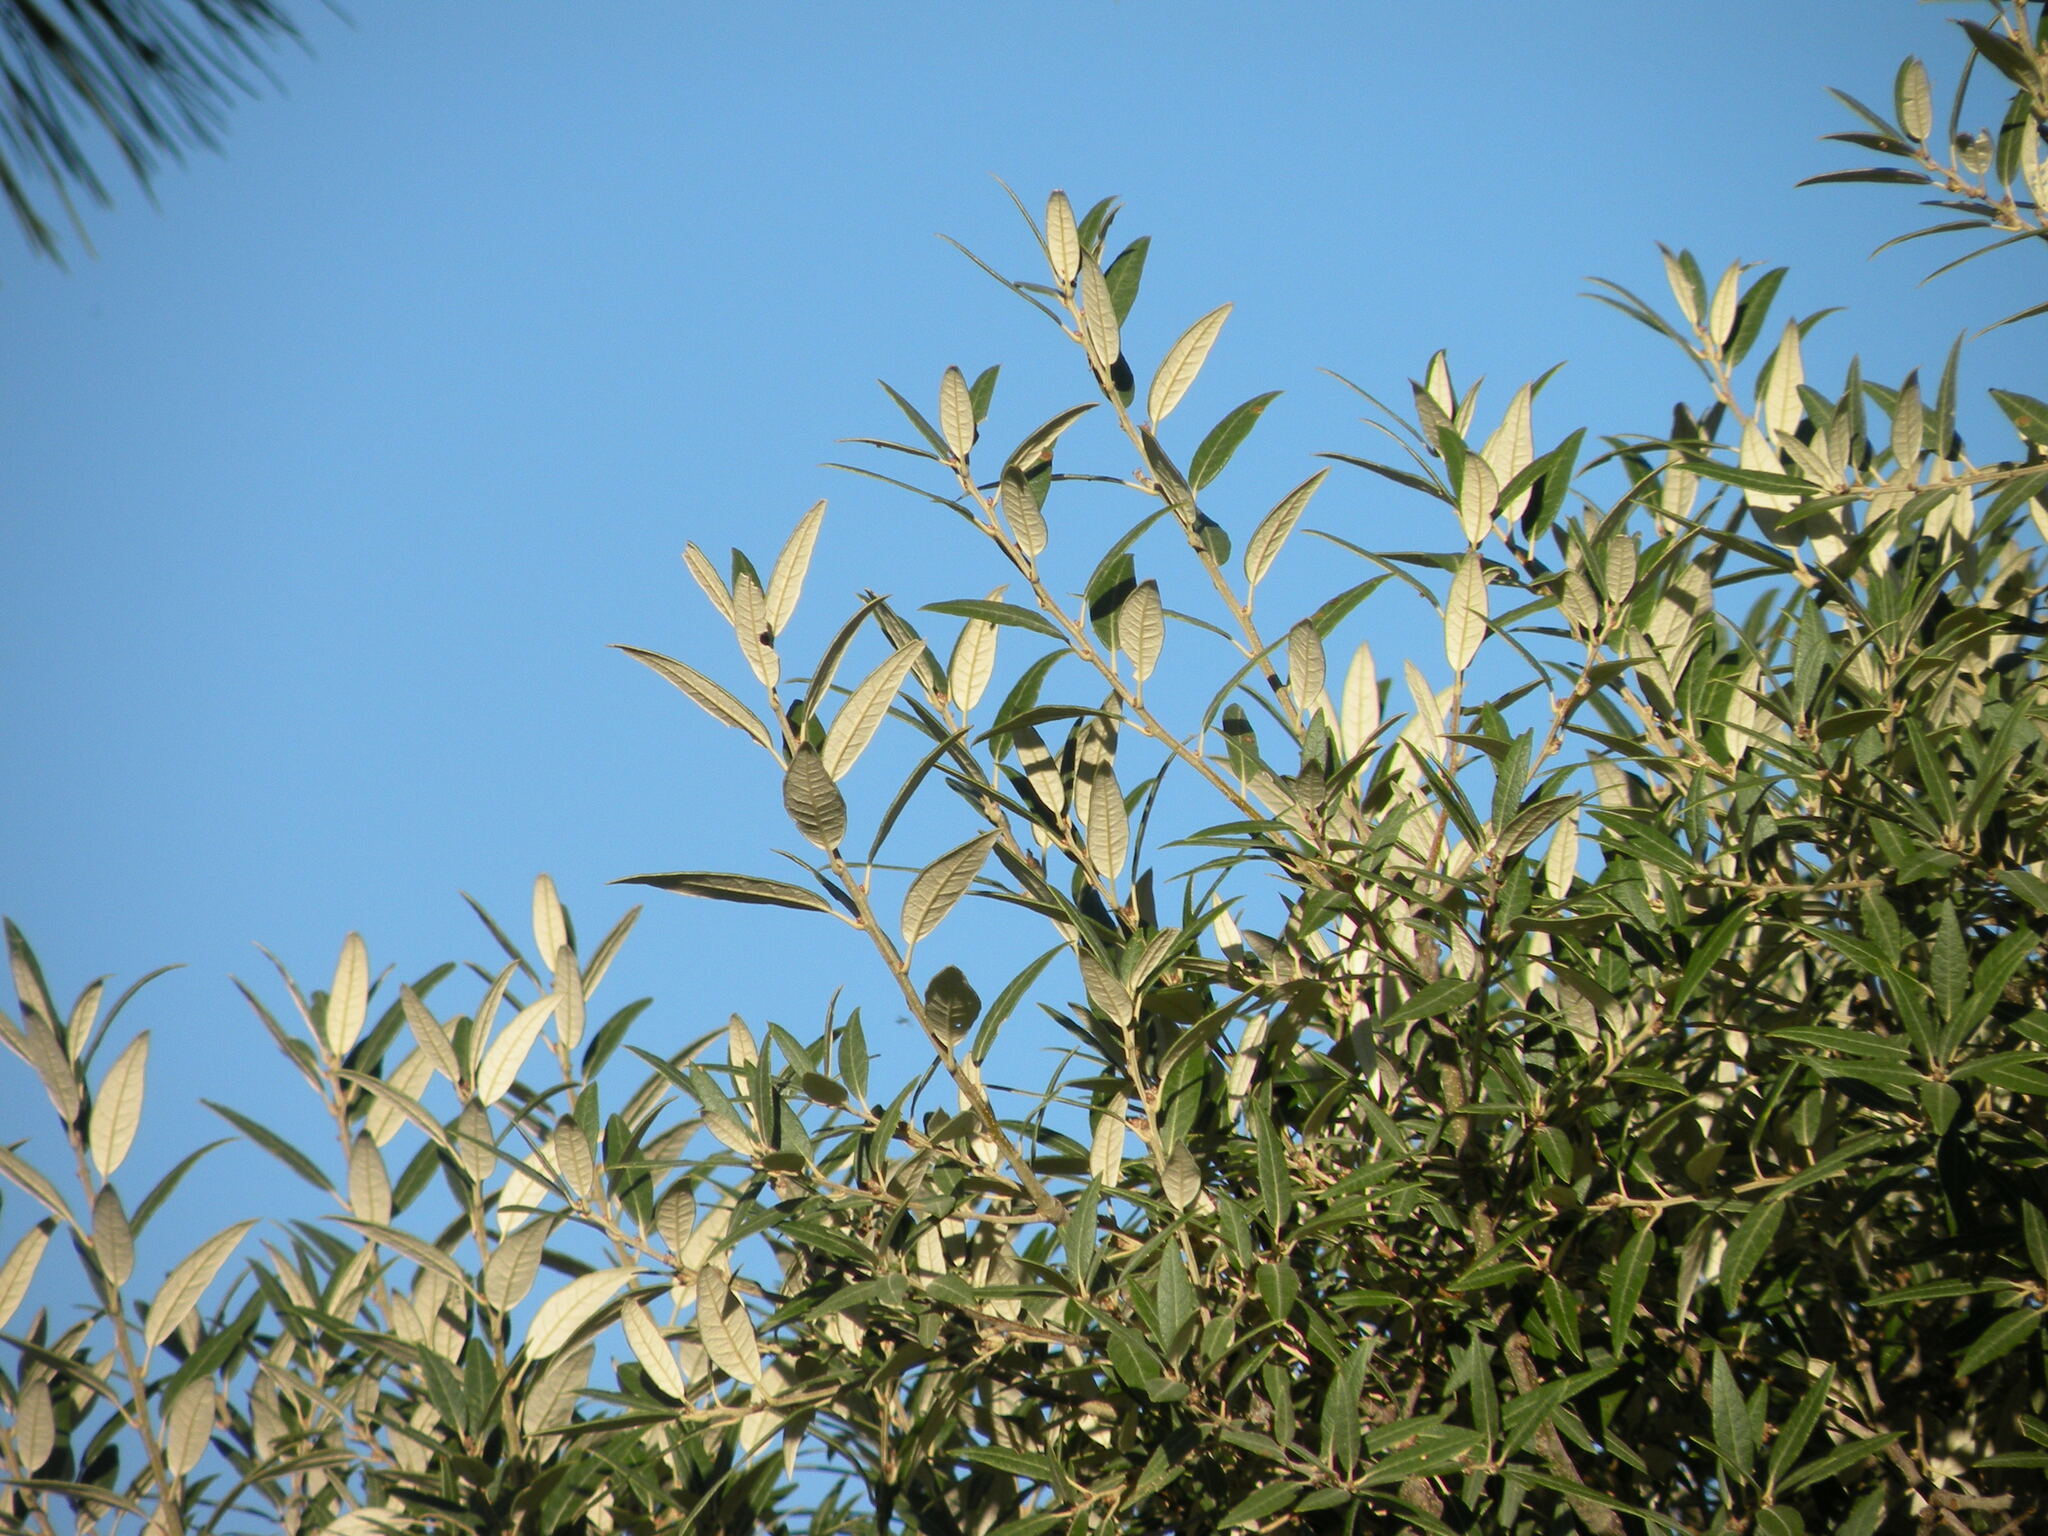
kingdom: Plantae
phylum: Tracheophyta
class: Magnoliopsida
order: Fagales
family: Fagaceae
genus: Quercus
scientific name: Quercus hypoleucoides
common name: Silverleaf oak
